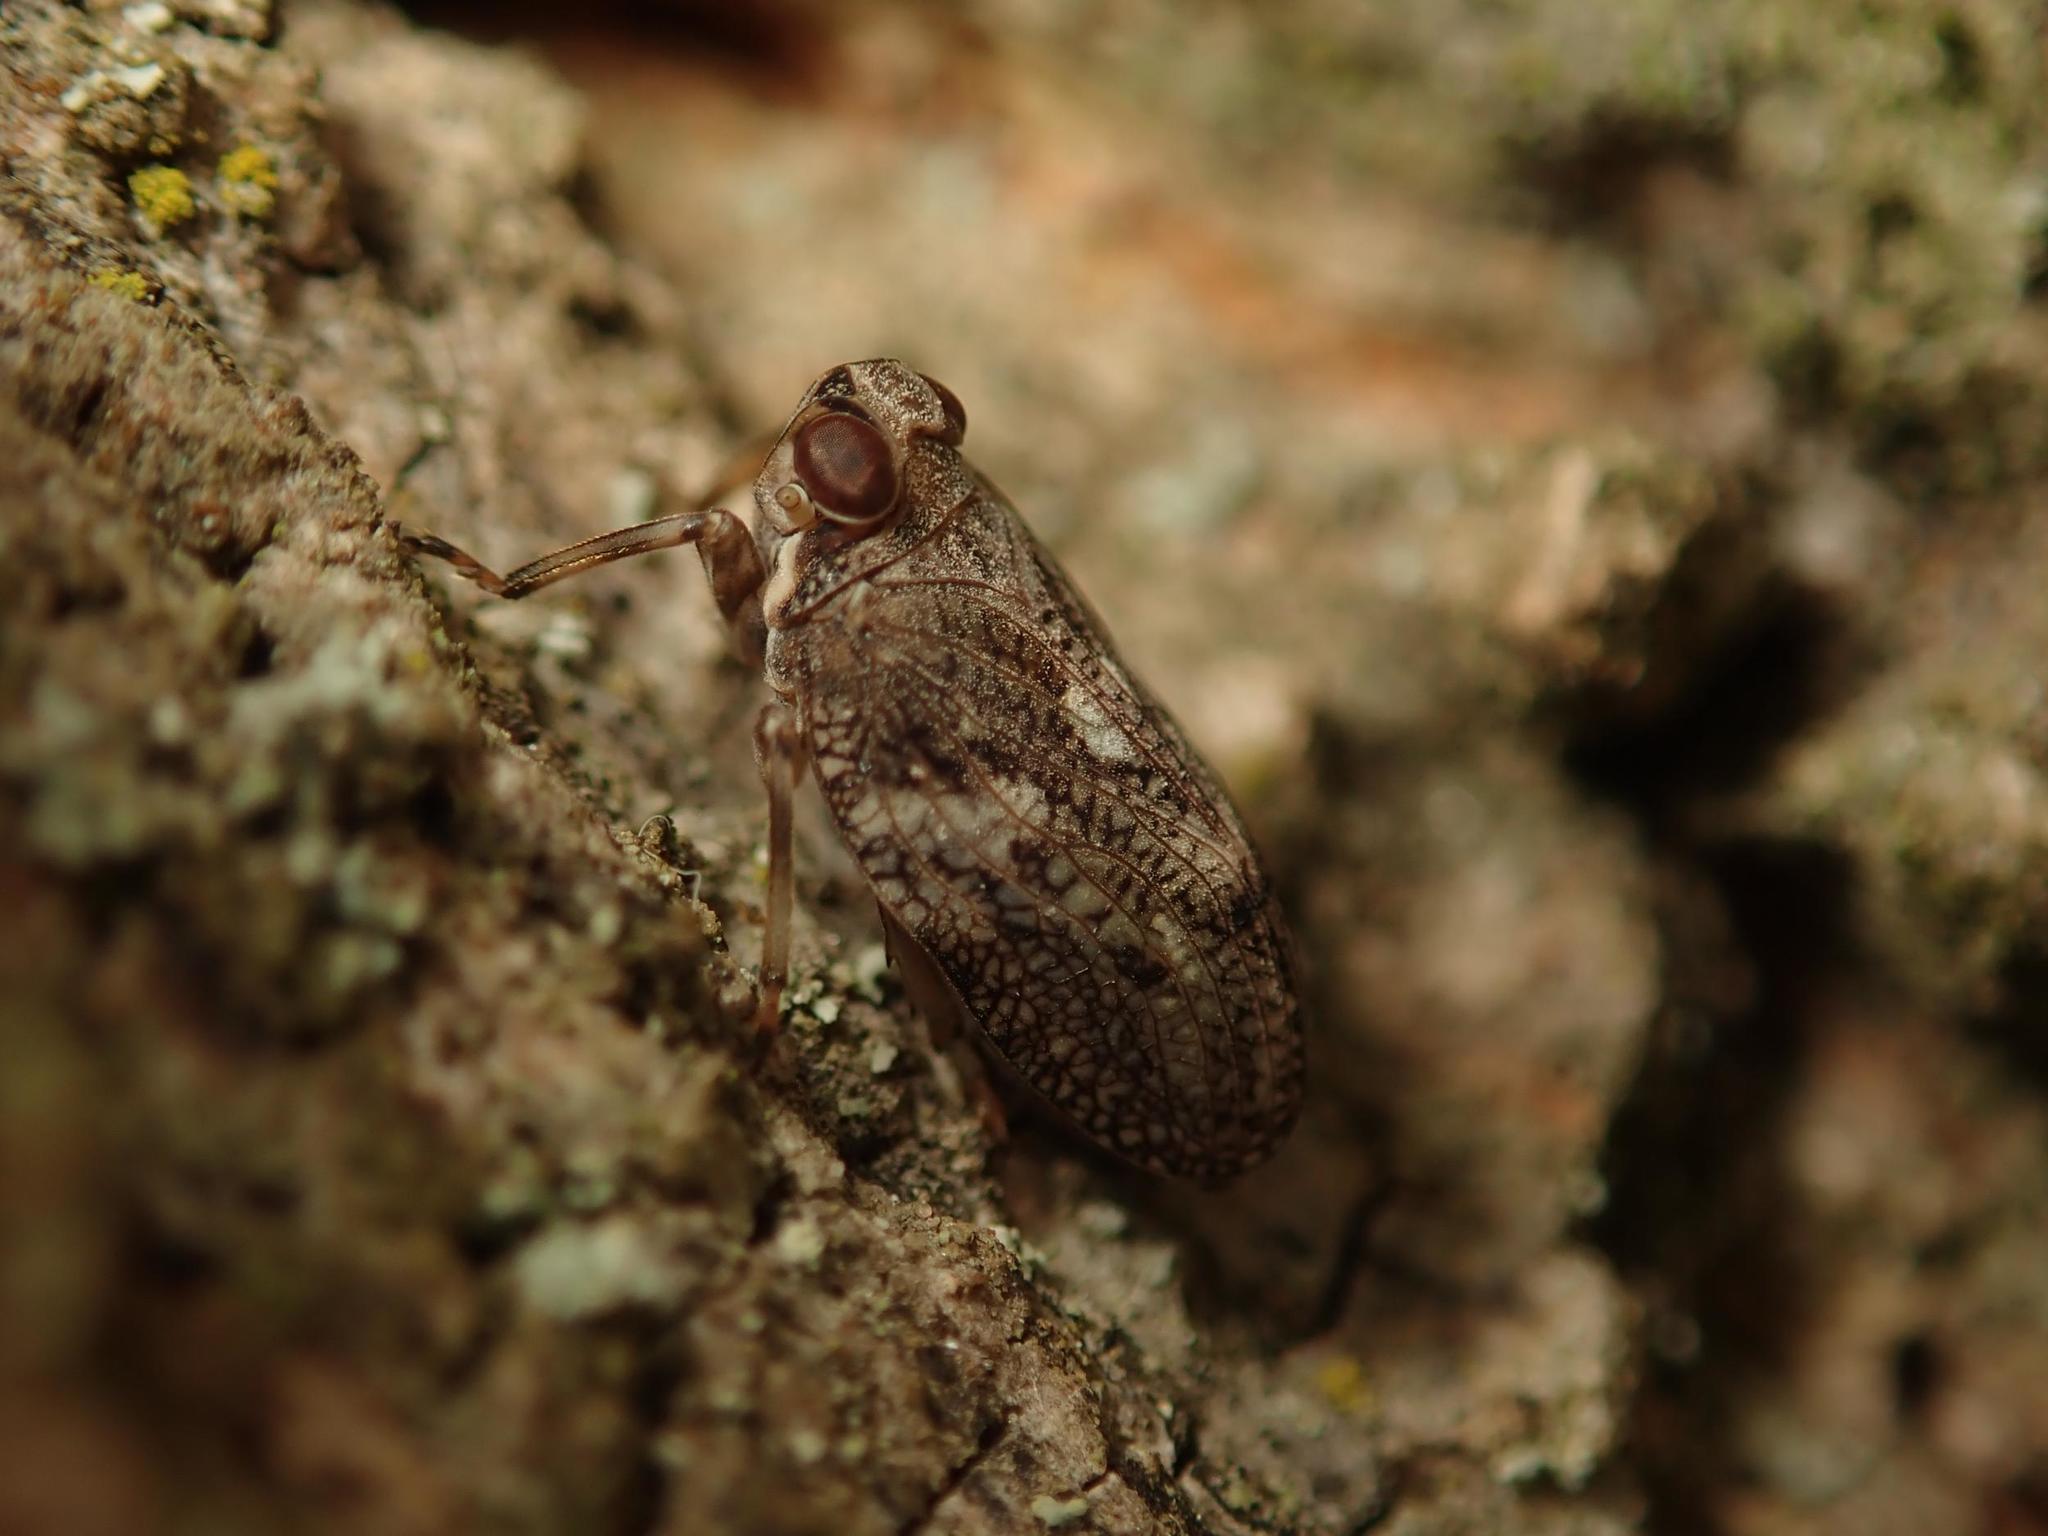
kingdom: Animalia
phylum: Arthropoda
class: Insecta
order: Hemiptera
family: Issidae
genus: Issus
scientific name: Issus coleoptratus
